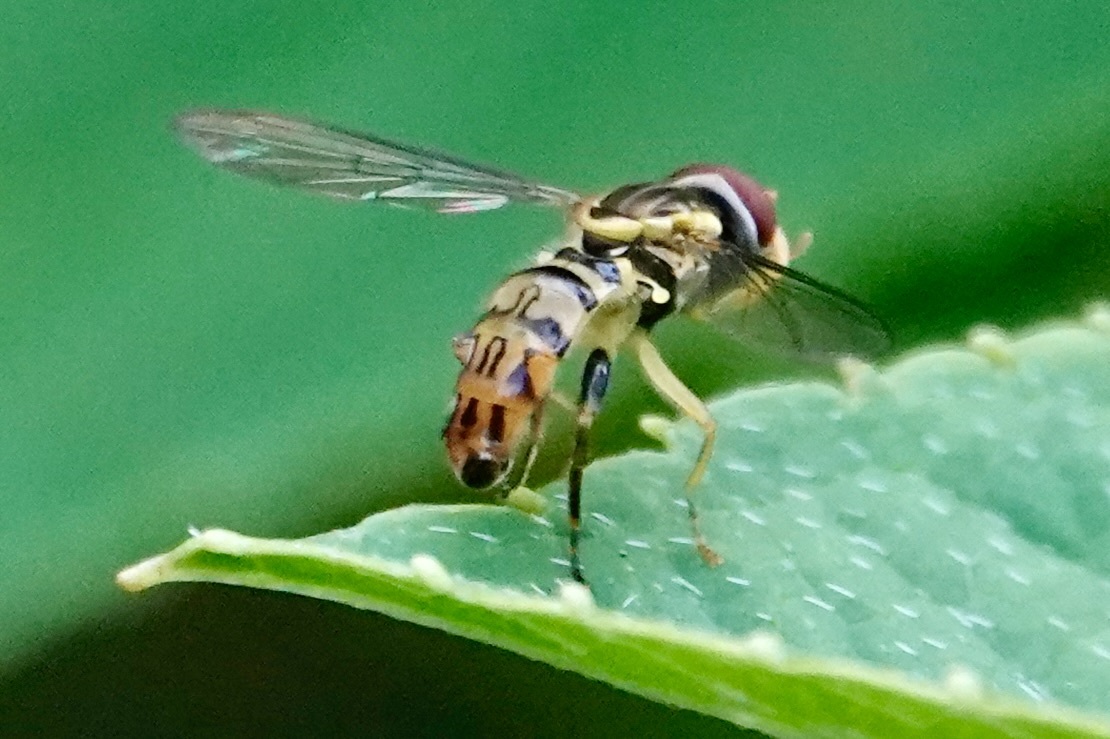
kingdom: Animalia
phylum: Arthropoda
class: Insecta
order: Diptera
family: Syrphidae
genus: Toxomerus
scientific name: Toxomerus geminatus
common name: Eastern calligrapher
